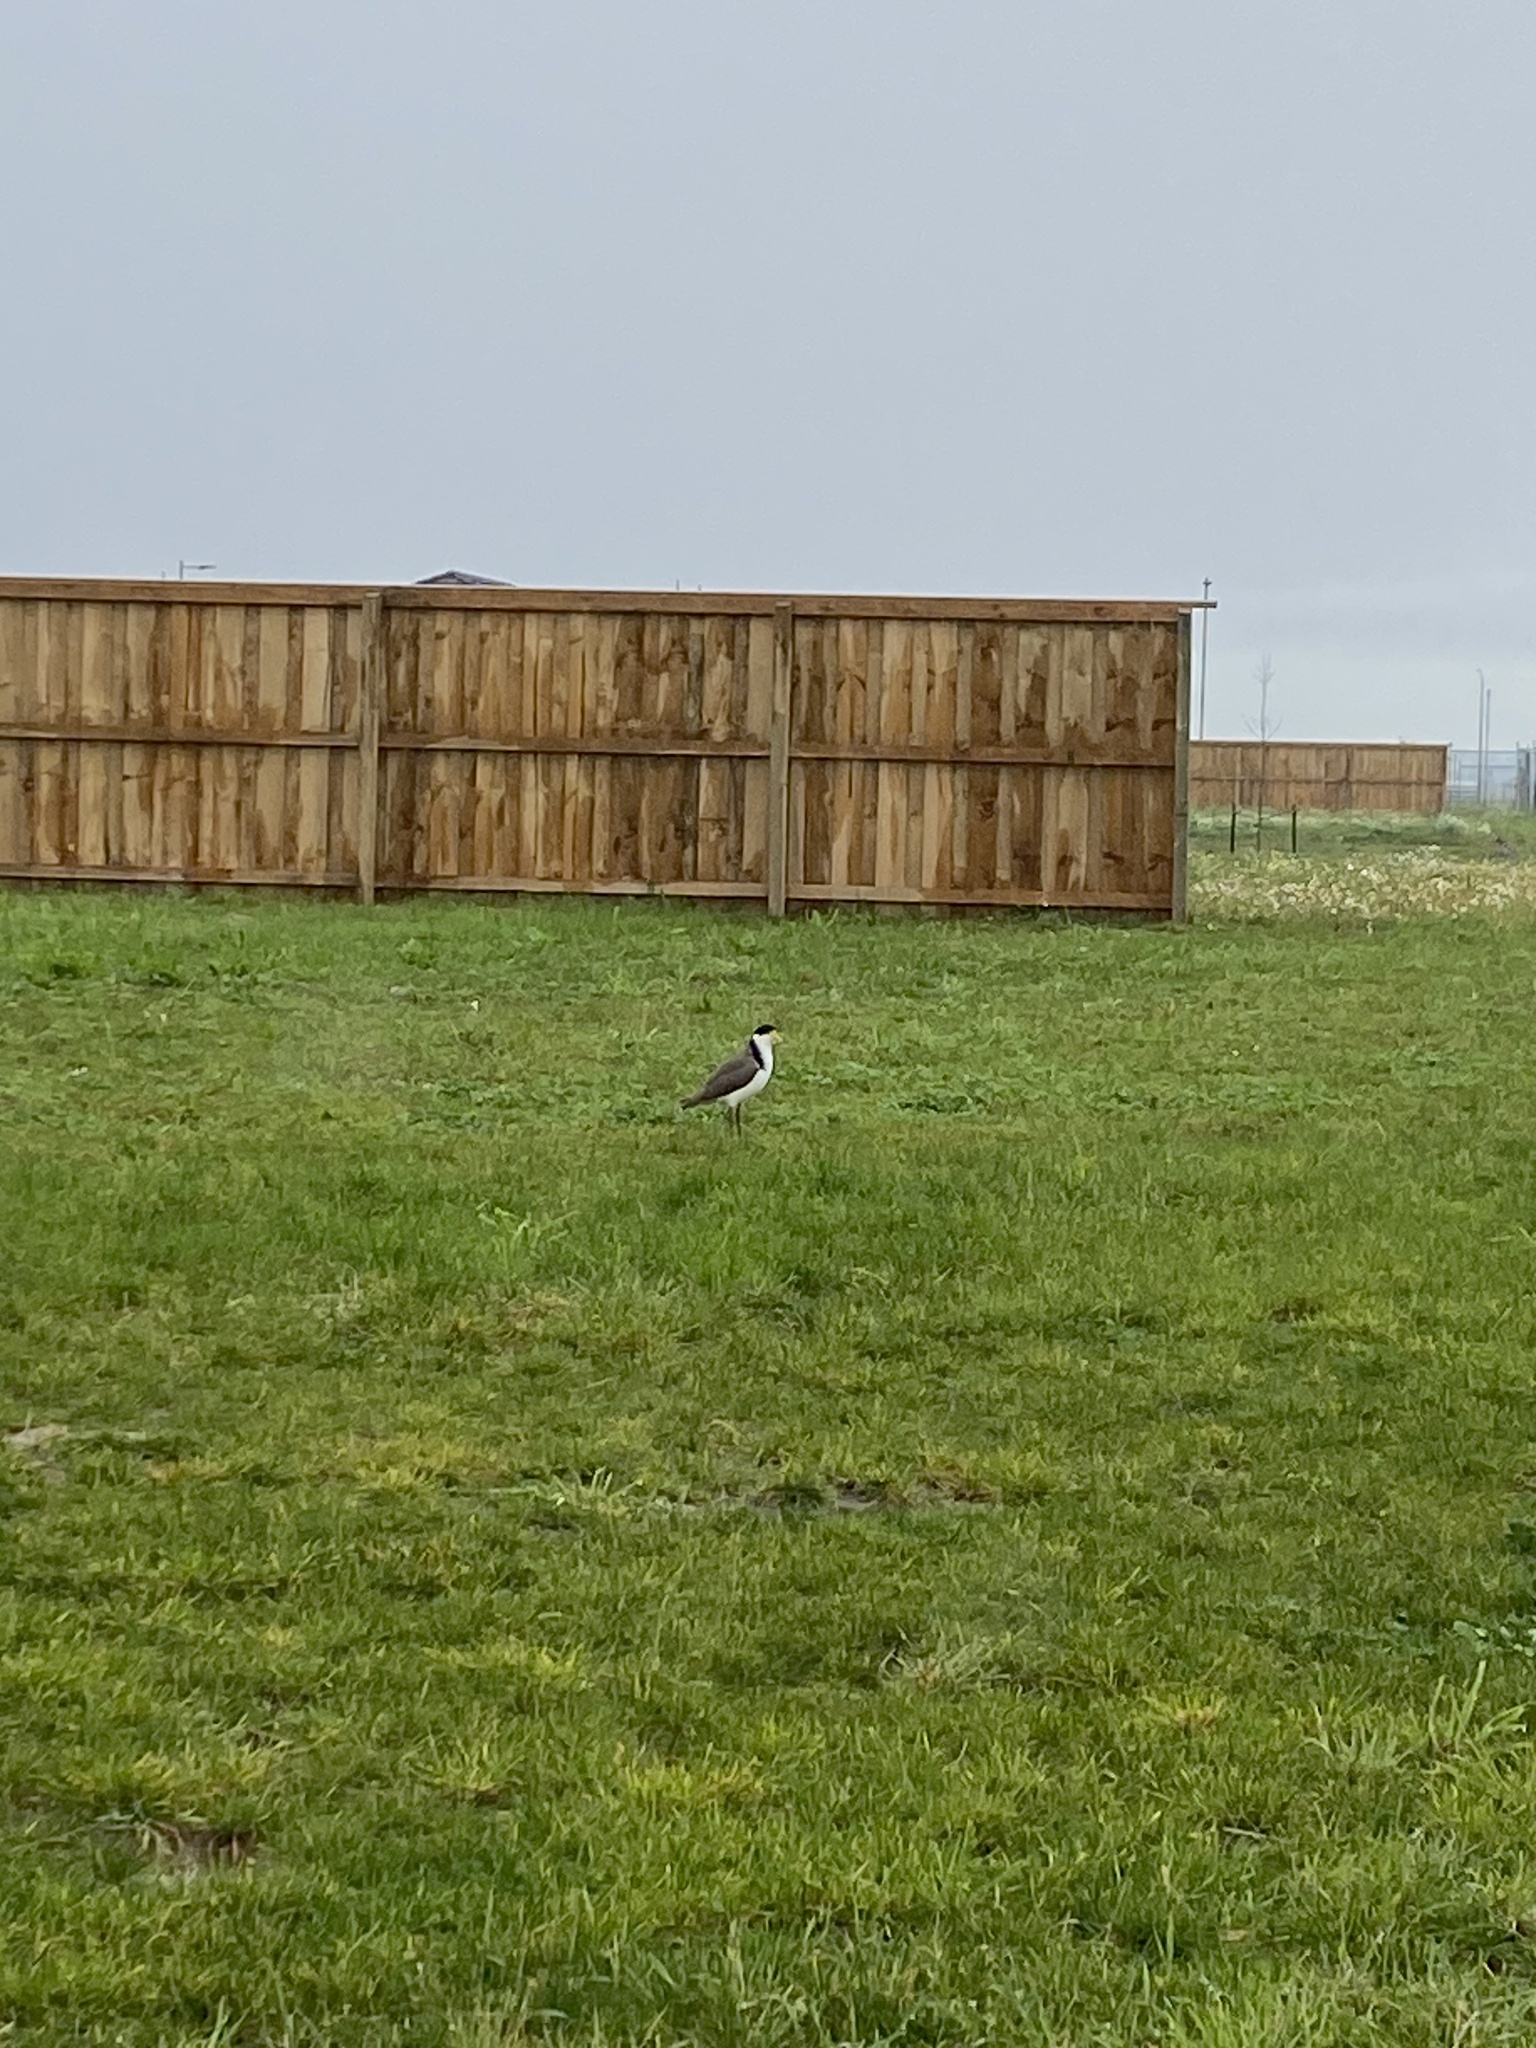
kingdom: Animalia
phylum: Chordata
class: Aves
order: Charadriiformes
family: Charadriidae
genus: Vanellus
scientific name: Vanellus miles
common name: Masked lapwing
